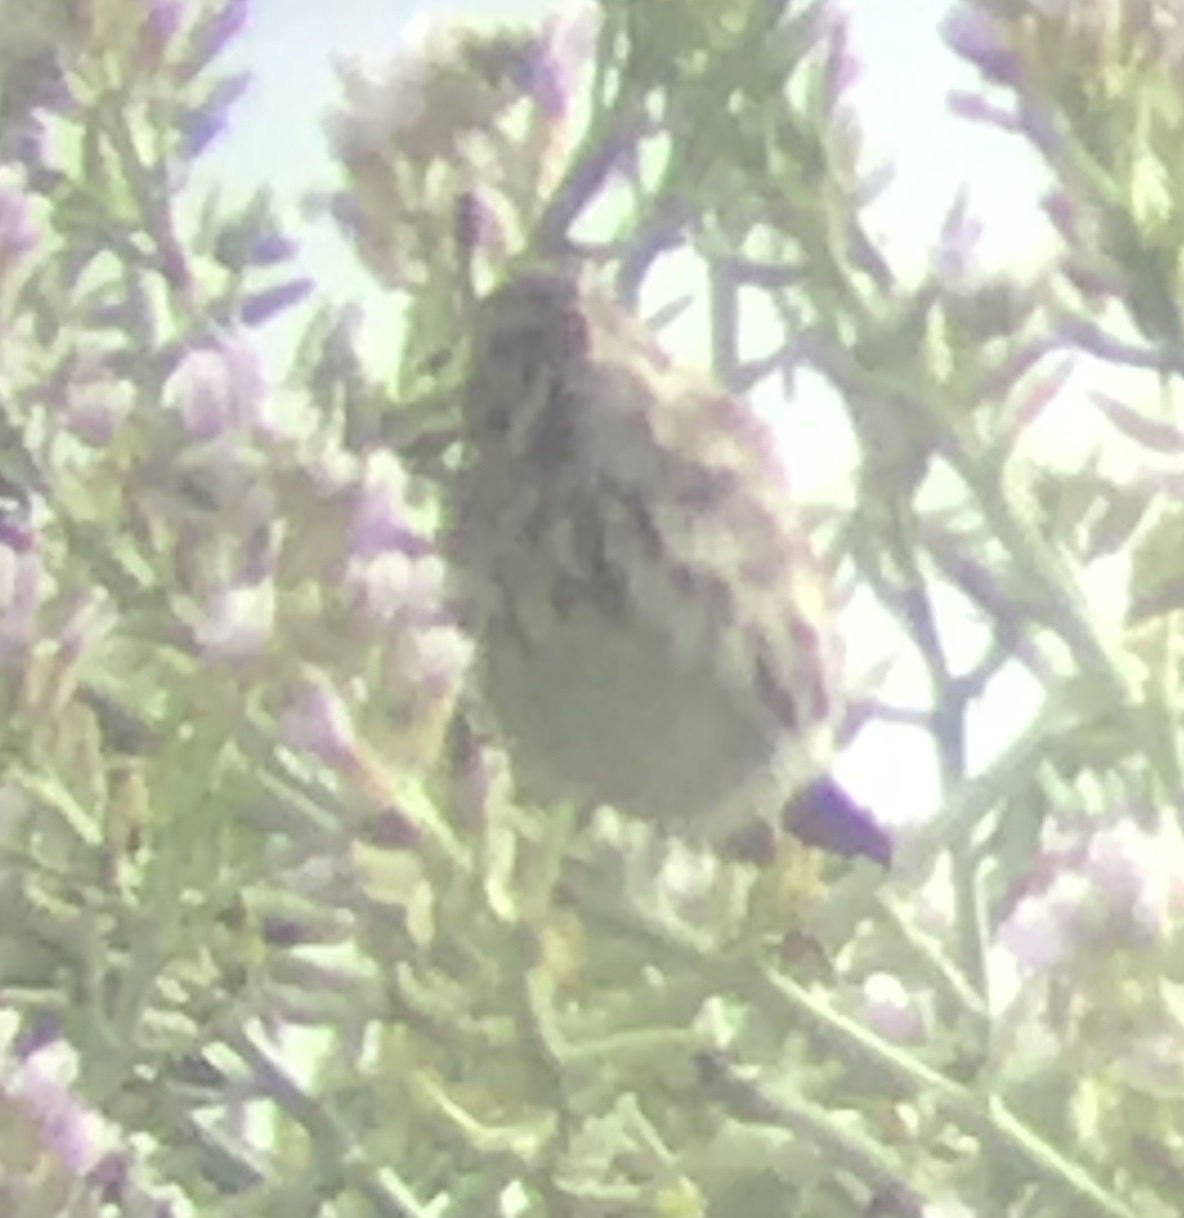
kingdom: Animalia
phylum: Chordata
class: Aves
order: Passeriformes
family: Passerellidae
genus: Passerculus
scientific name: Passerculus sandwichensis
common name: Savannah sparrow
